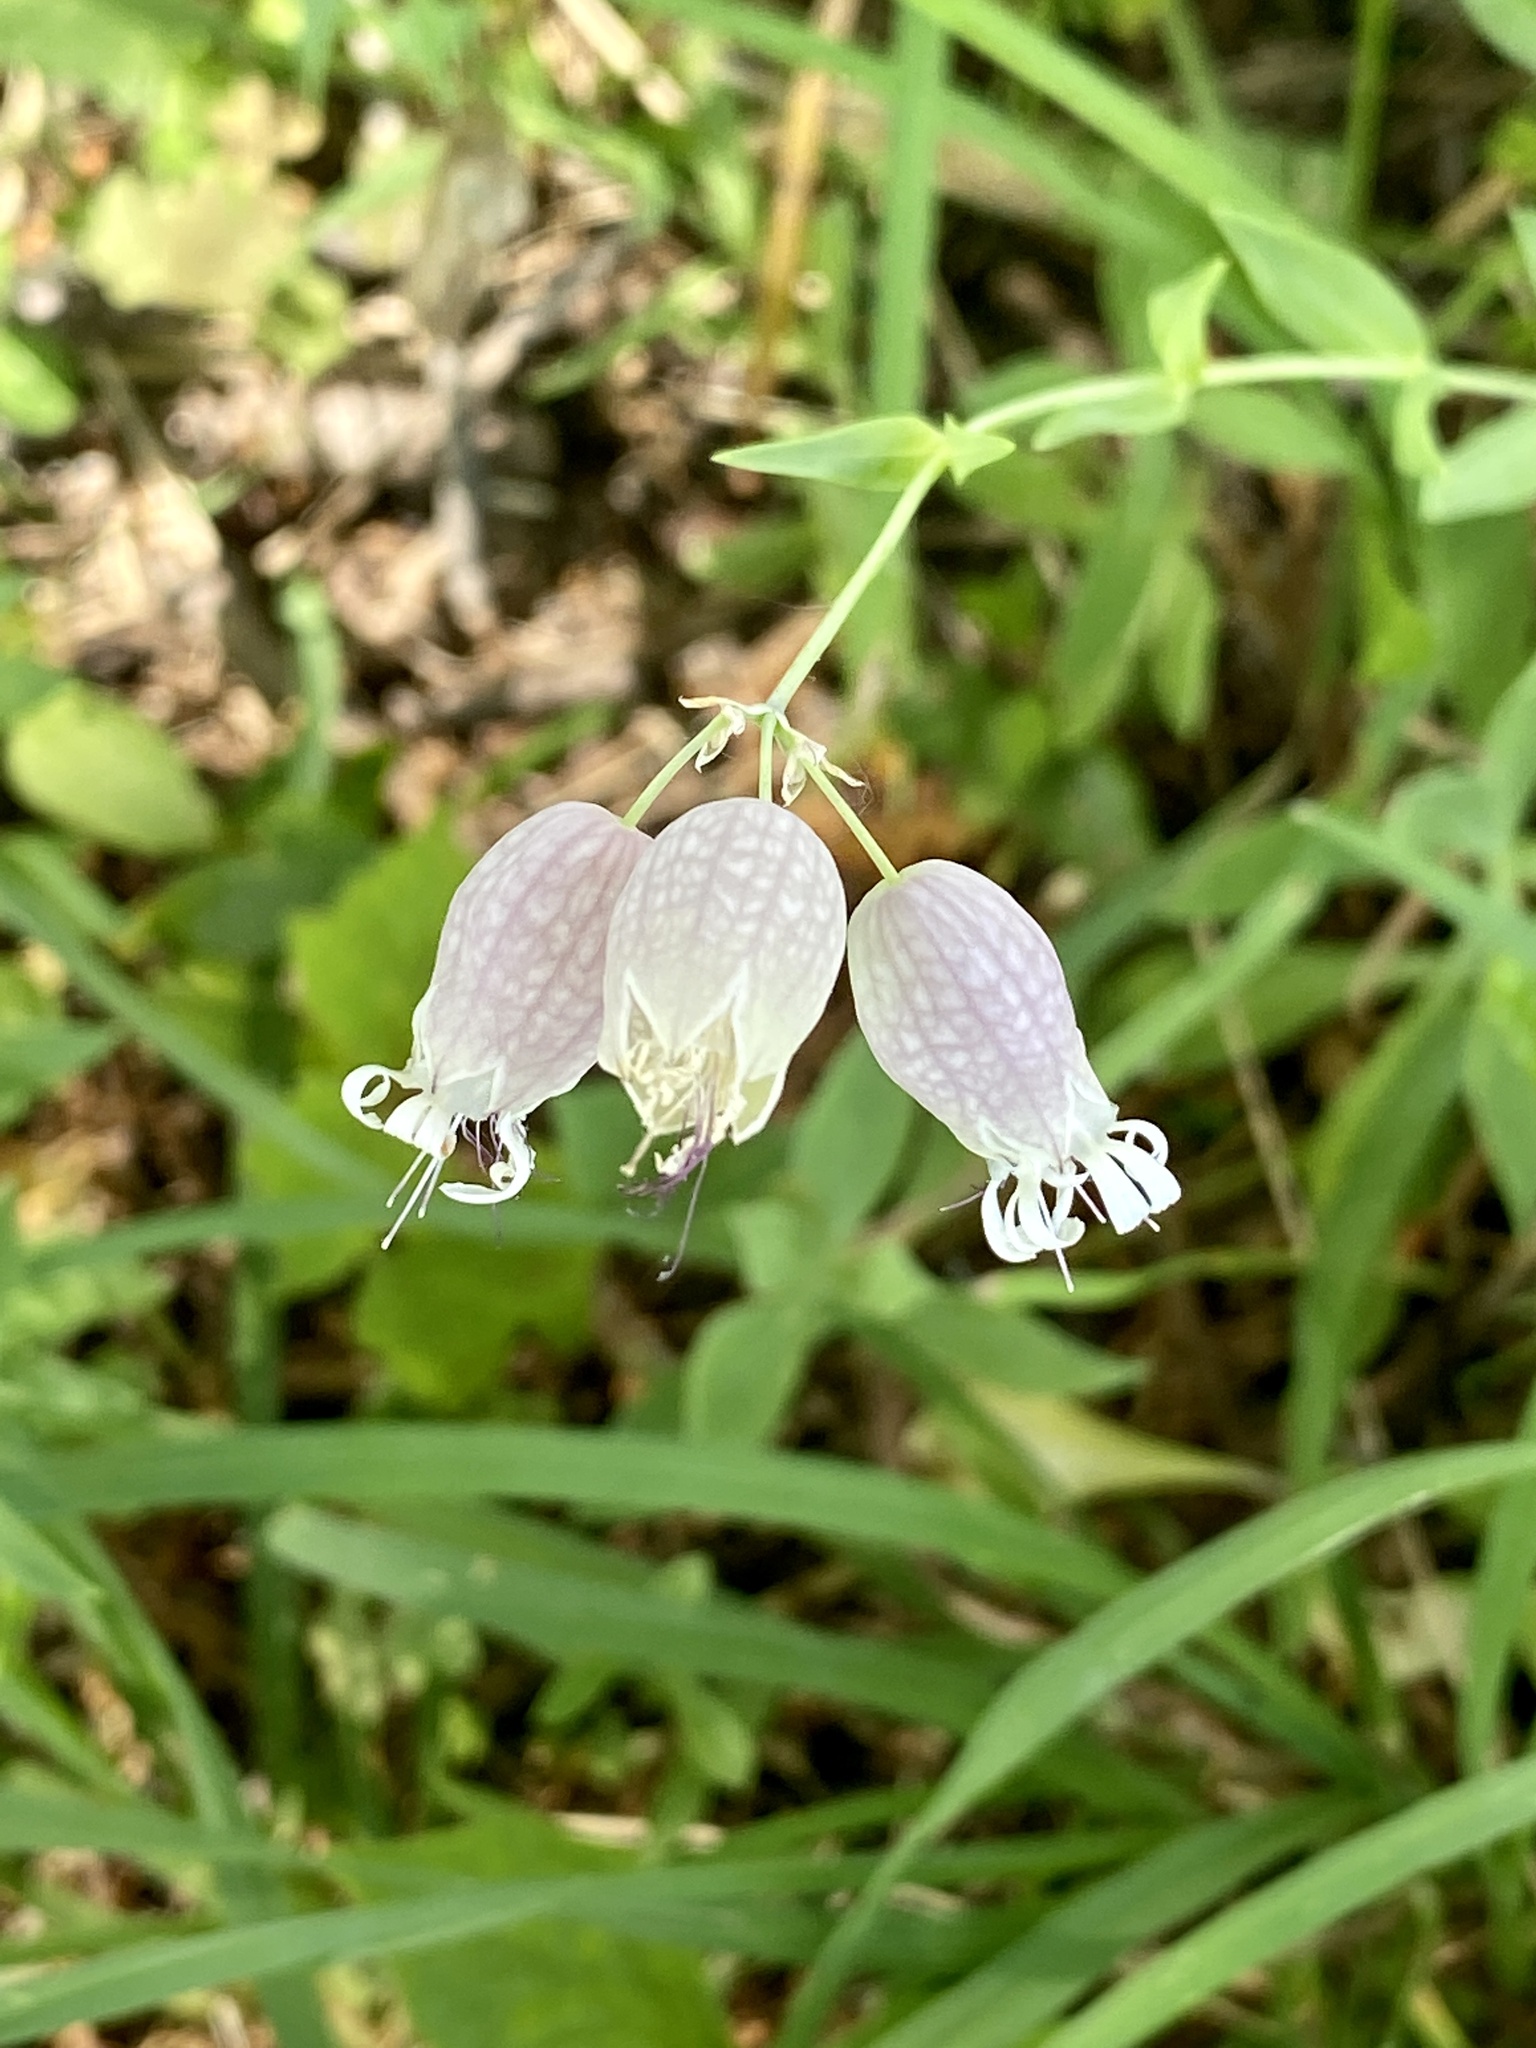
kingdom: Plantae
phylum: Tracheophyta
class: Magnoliopsida
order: Caryophyllales
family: Caryophyllaceae
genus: Silene
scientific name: Silene vulgaris
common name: Bladder campion
